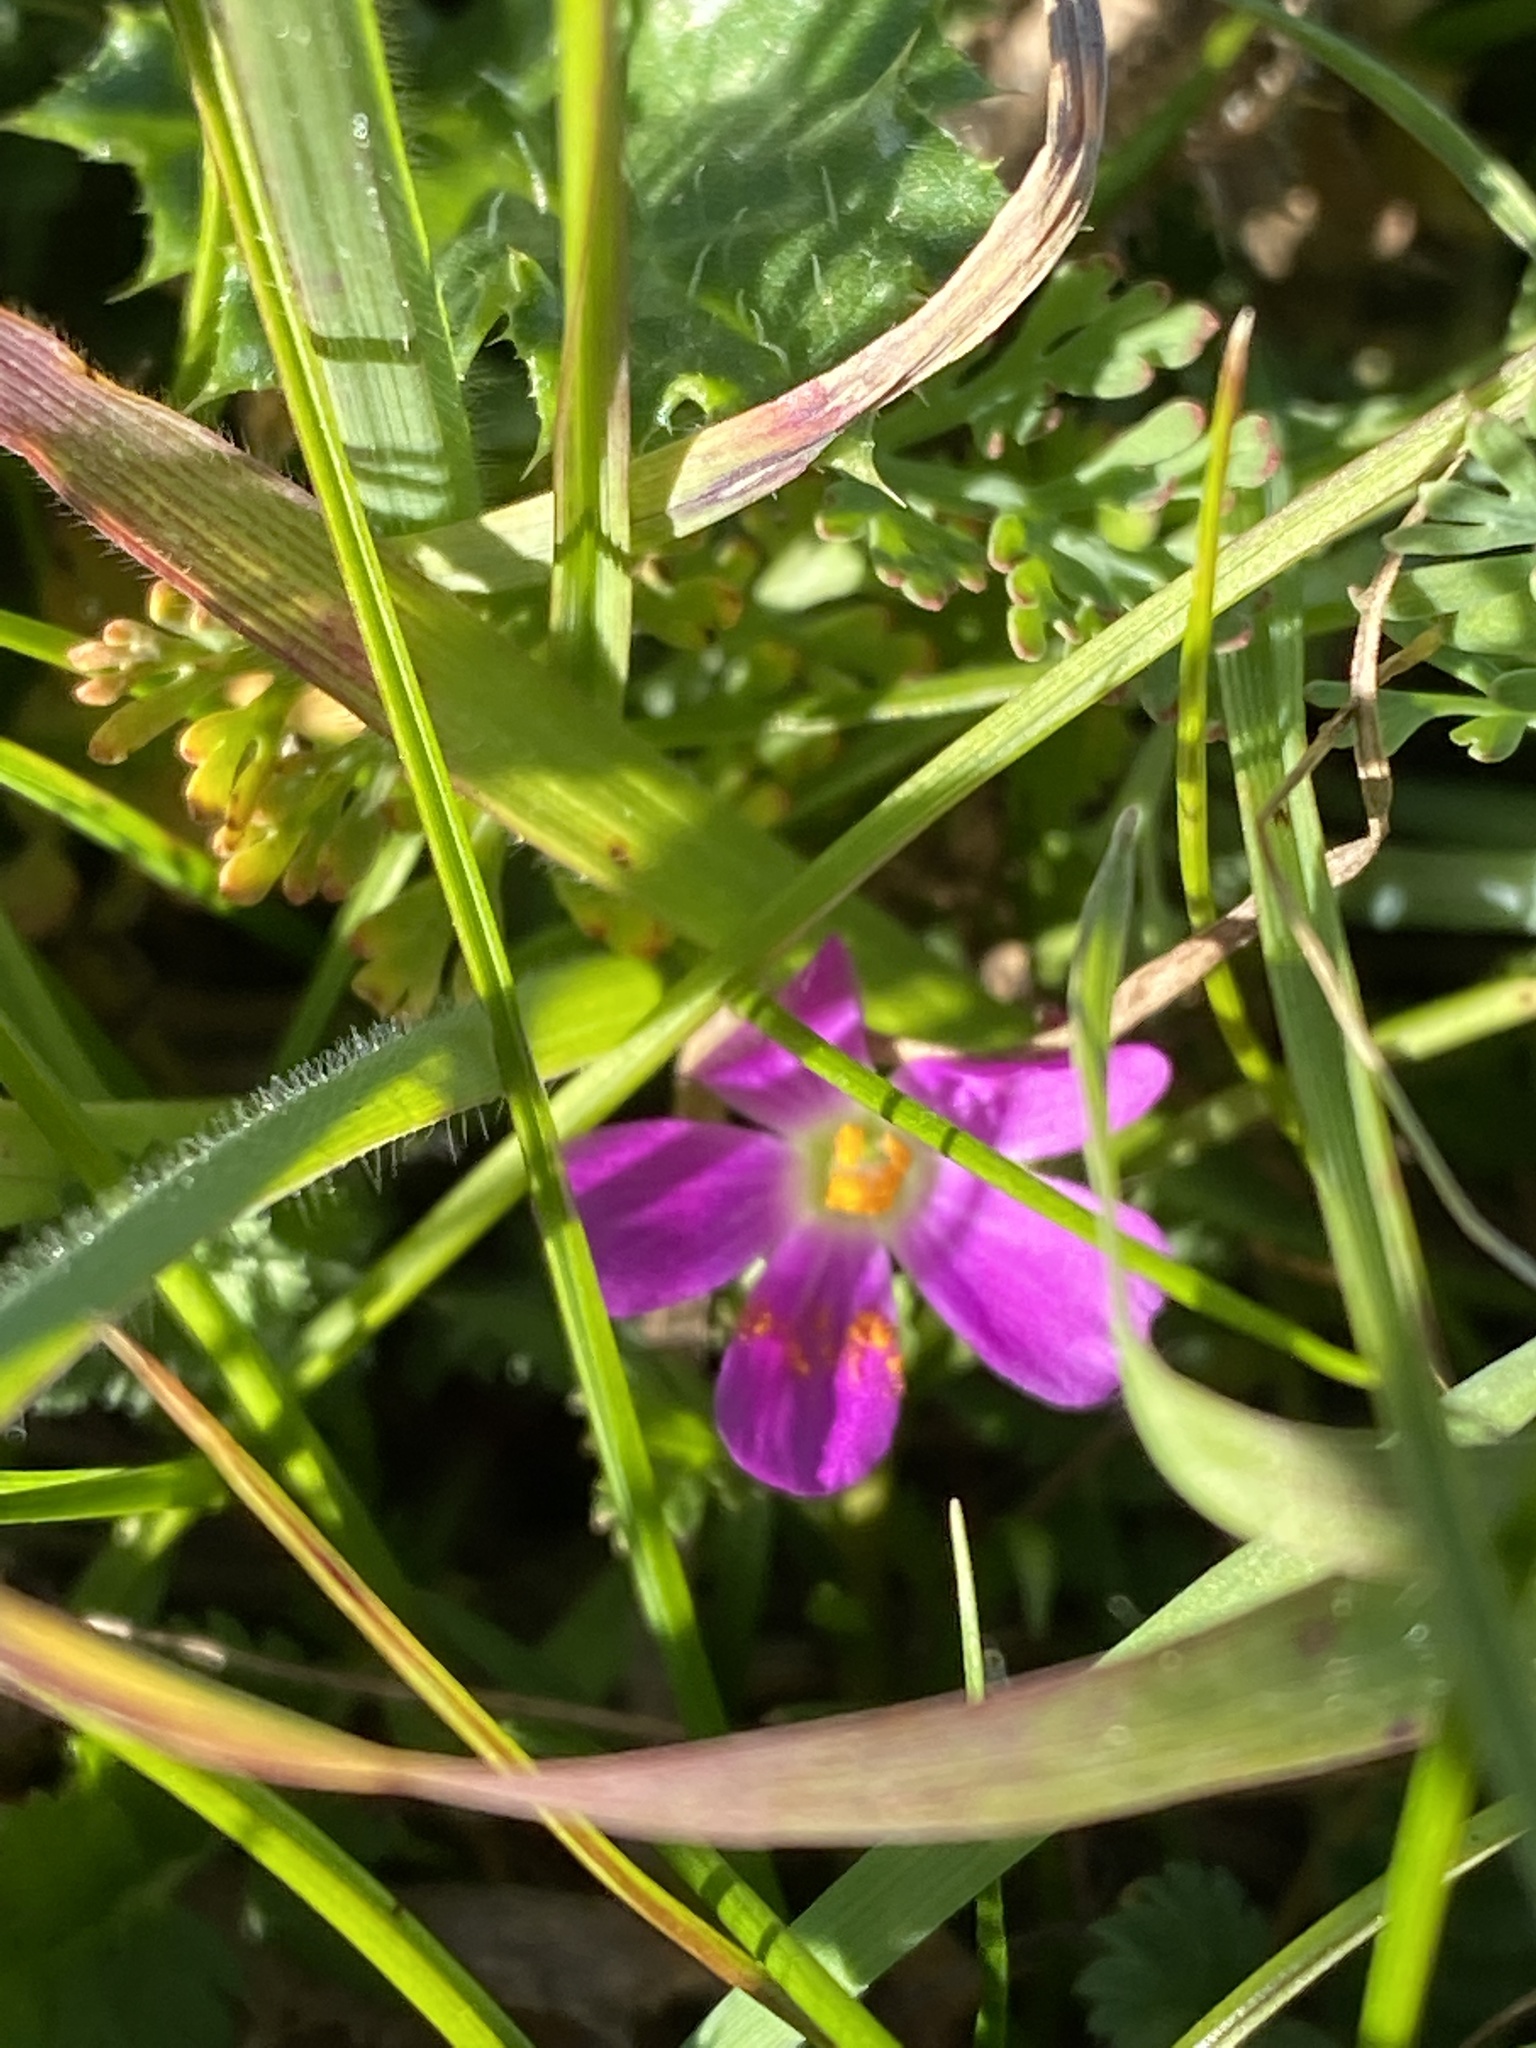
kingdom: Plantae
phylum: Tracheophyta
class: Magnoliopsida
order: Caryophyllales
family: Montiaceae
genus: Calandrinia
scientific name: Calandrinia menziesii
